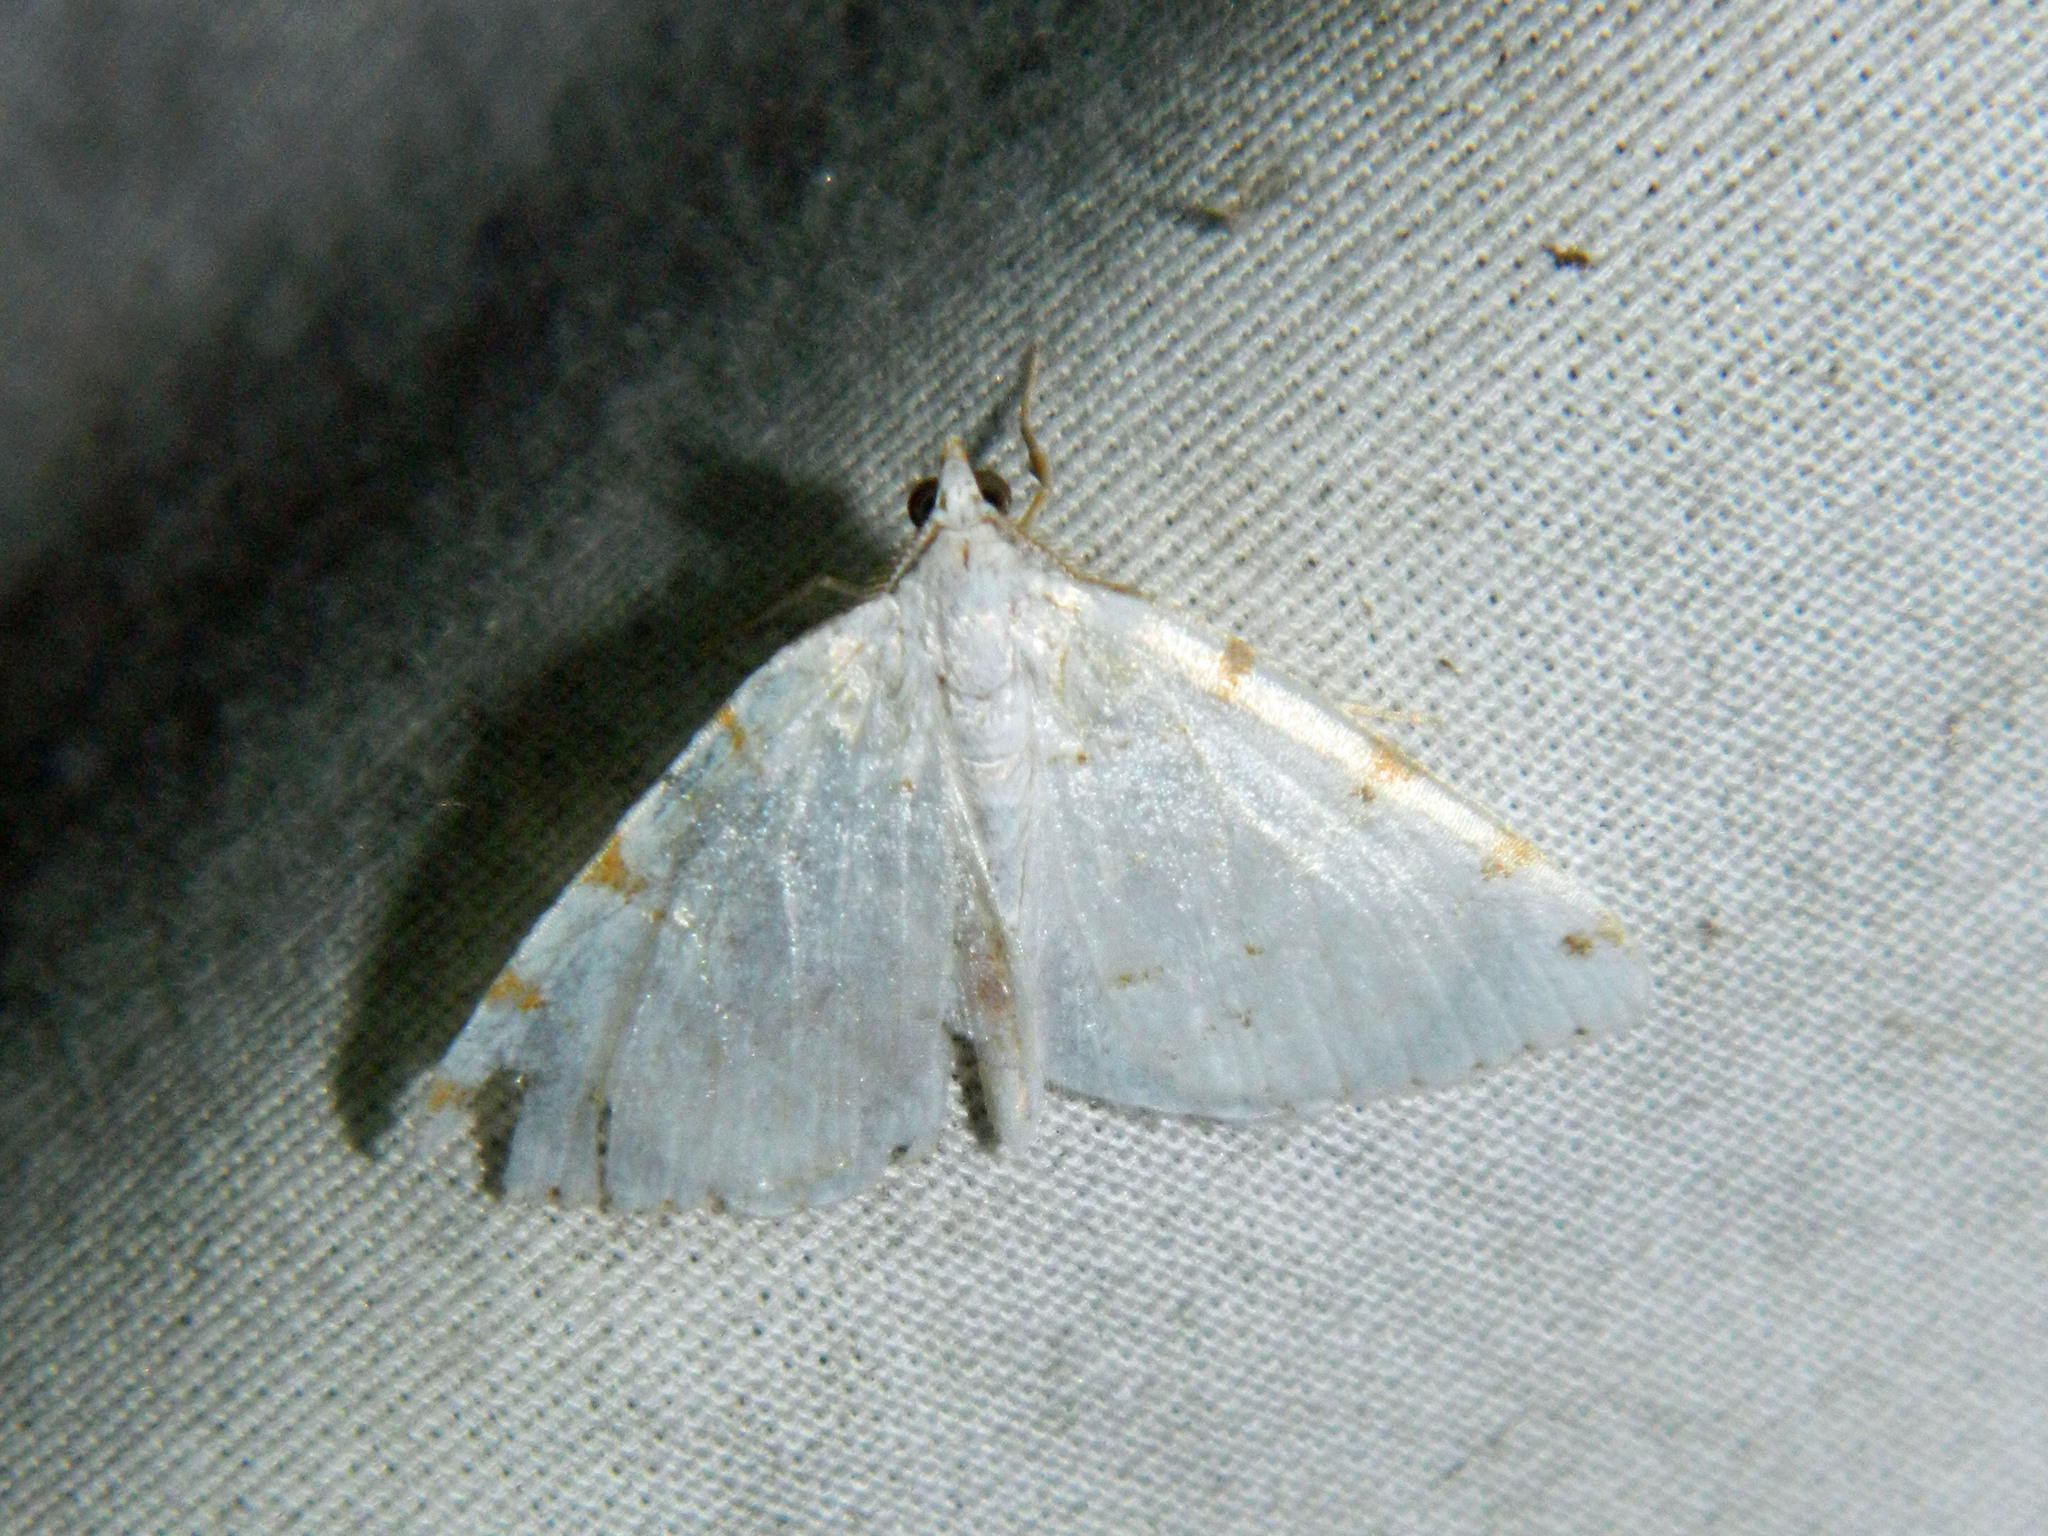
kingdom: Animalia
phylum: Arthropoda
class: Insecta
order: Lepidoptera
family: Geometridae
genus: Macaria
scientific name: Macaria pustularia
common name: Lesser maple spanworm moth
